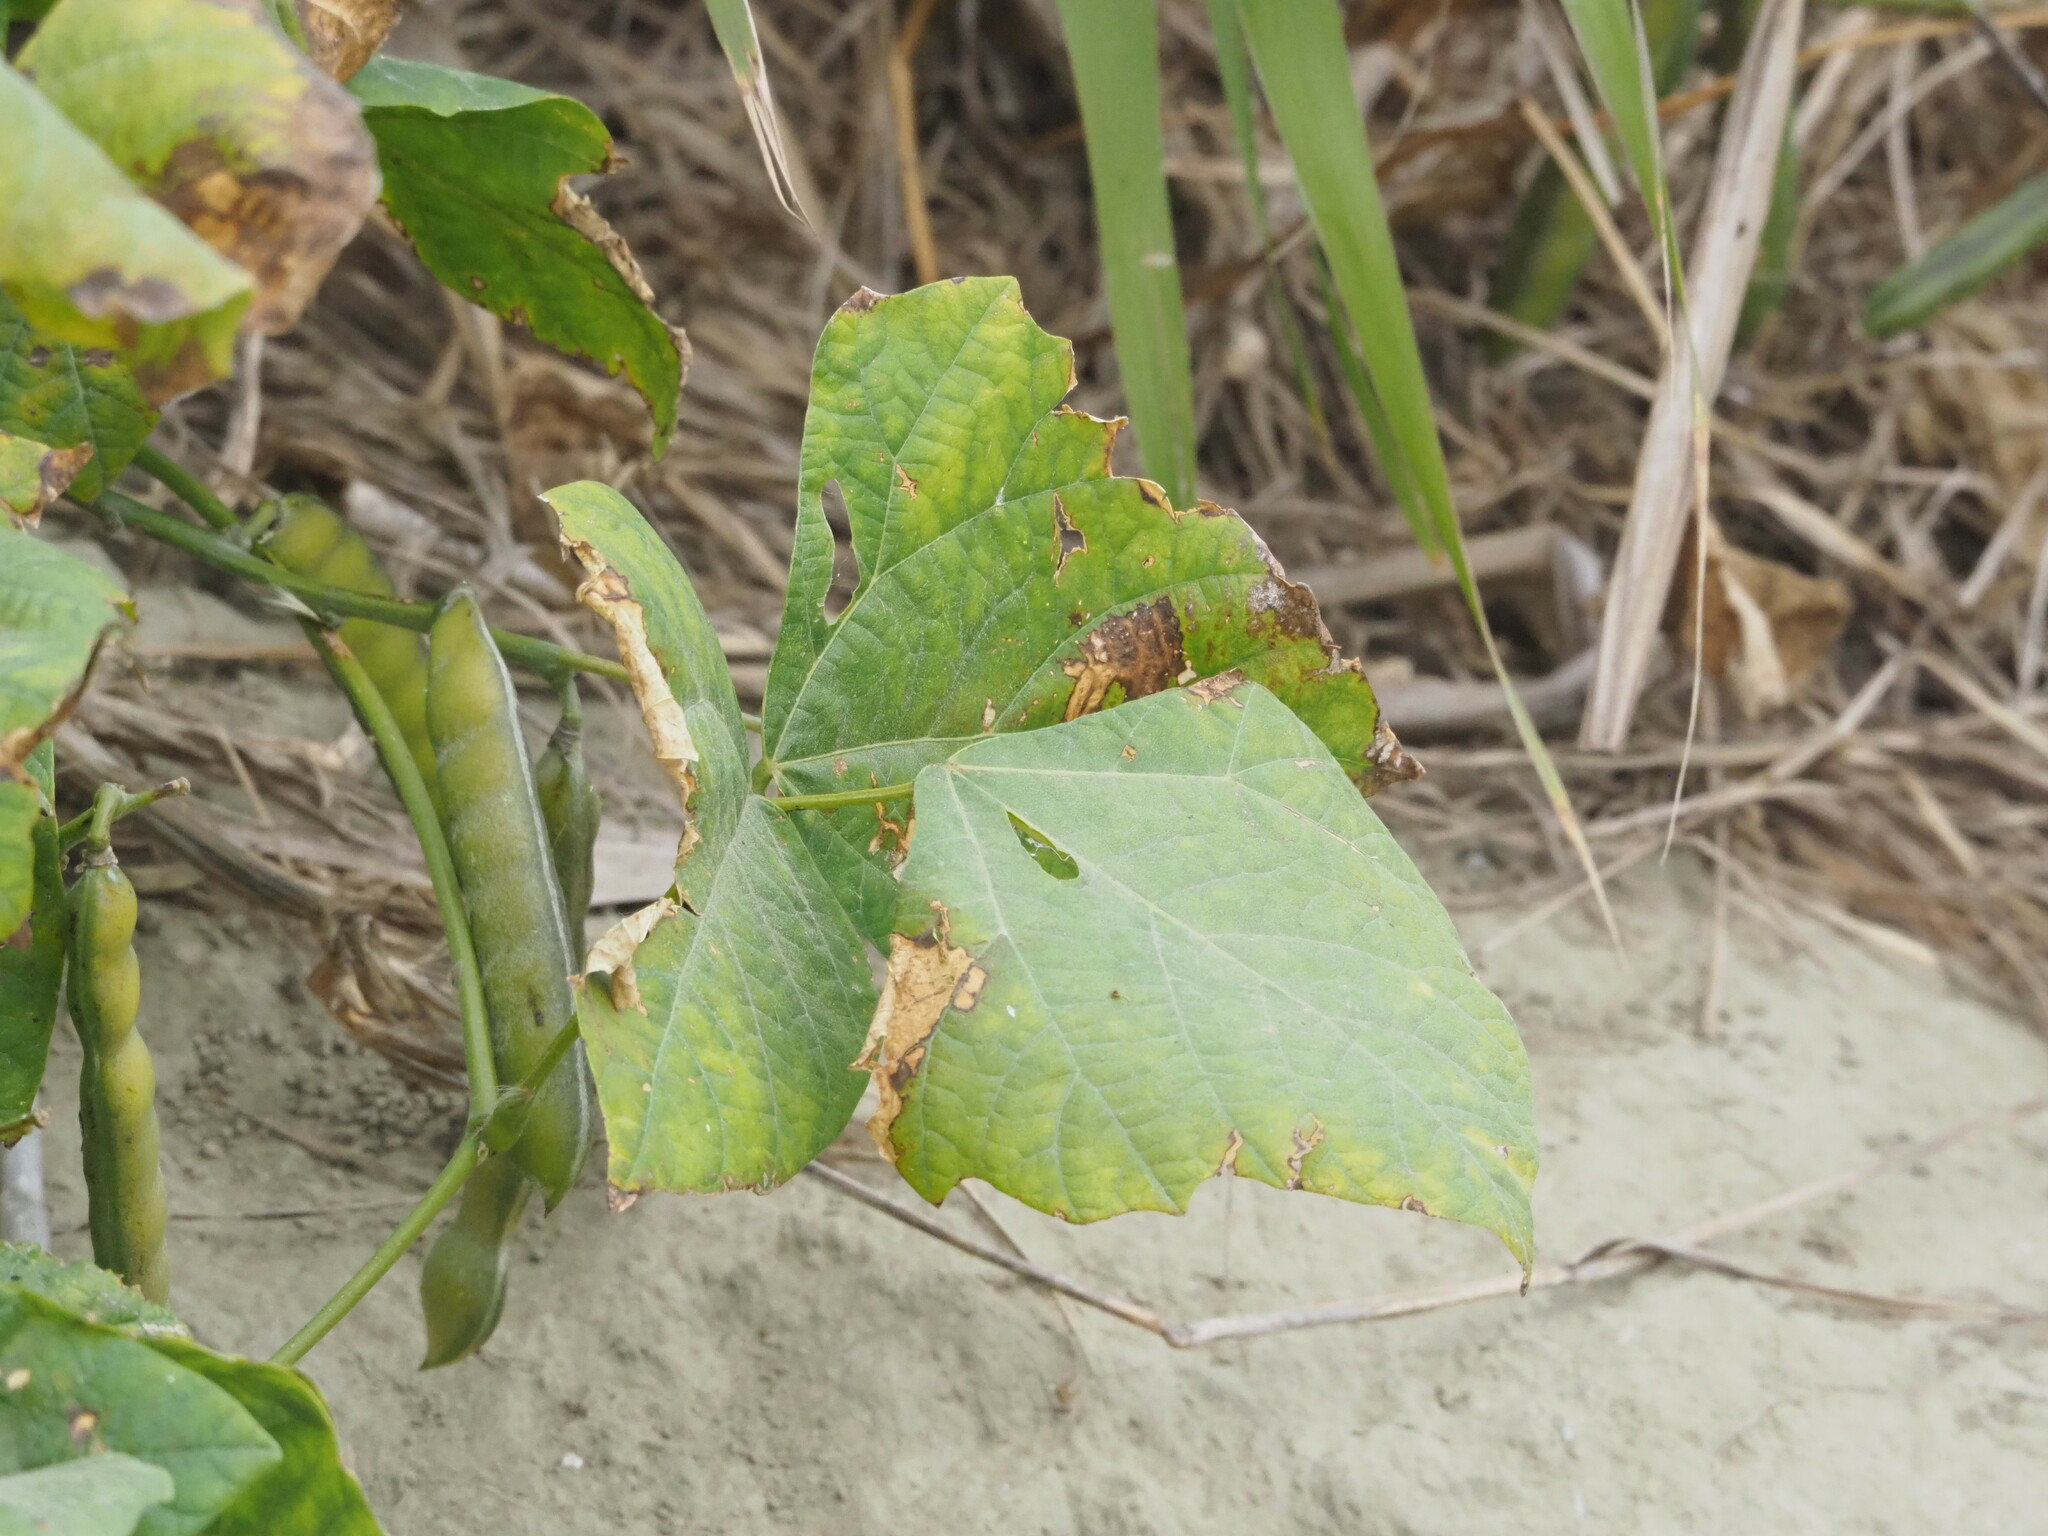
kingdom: Plantae
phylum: Tracheophyta
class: Magnoliopsida
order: Fabales
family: Fabaceae
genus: Pachyrhizus
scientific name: Pachyrhizus erosus
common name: Yam bean
